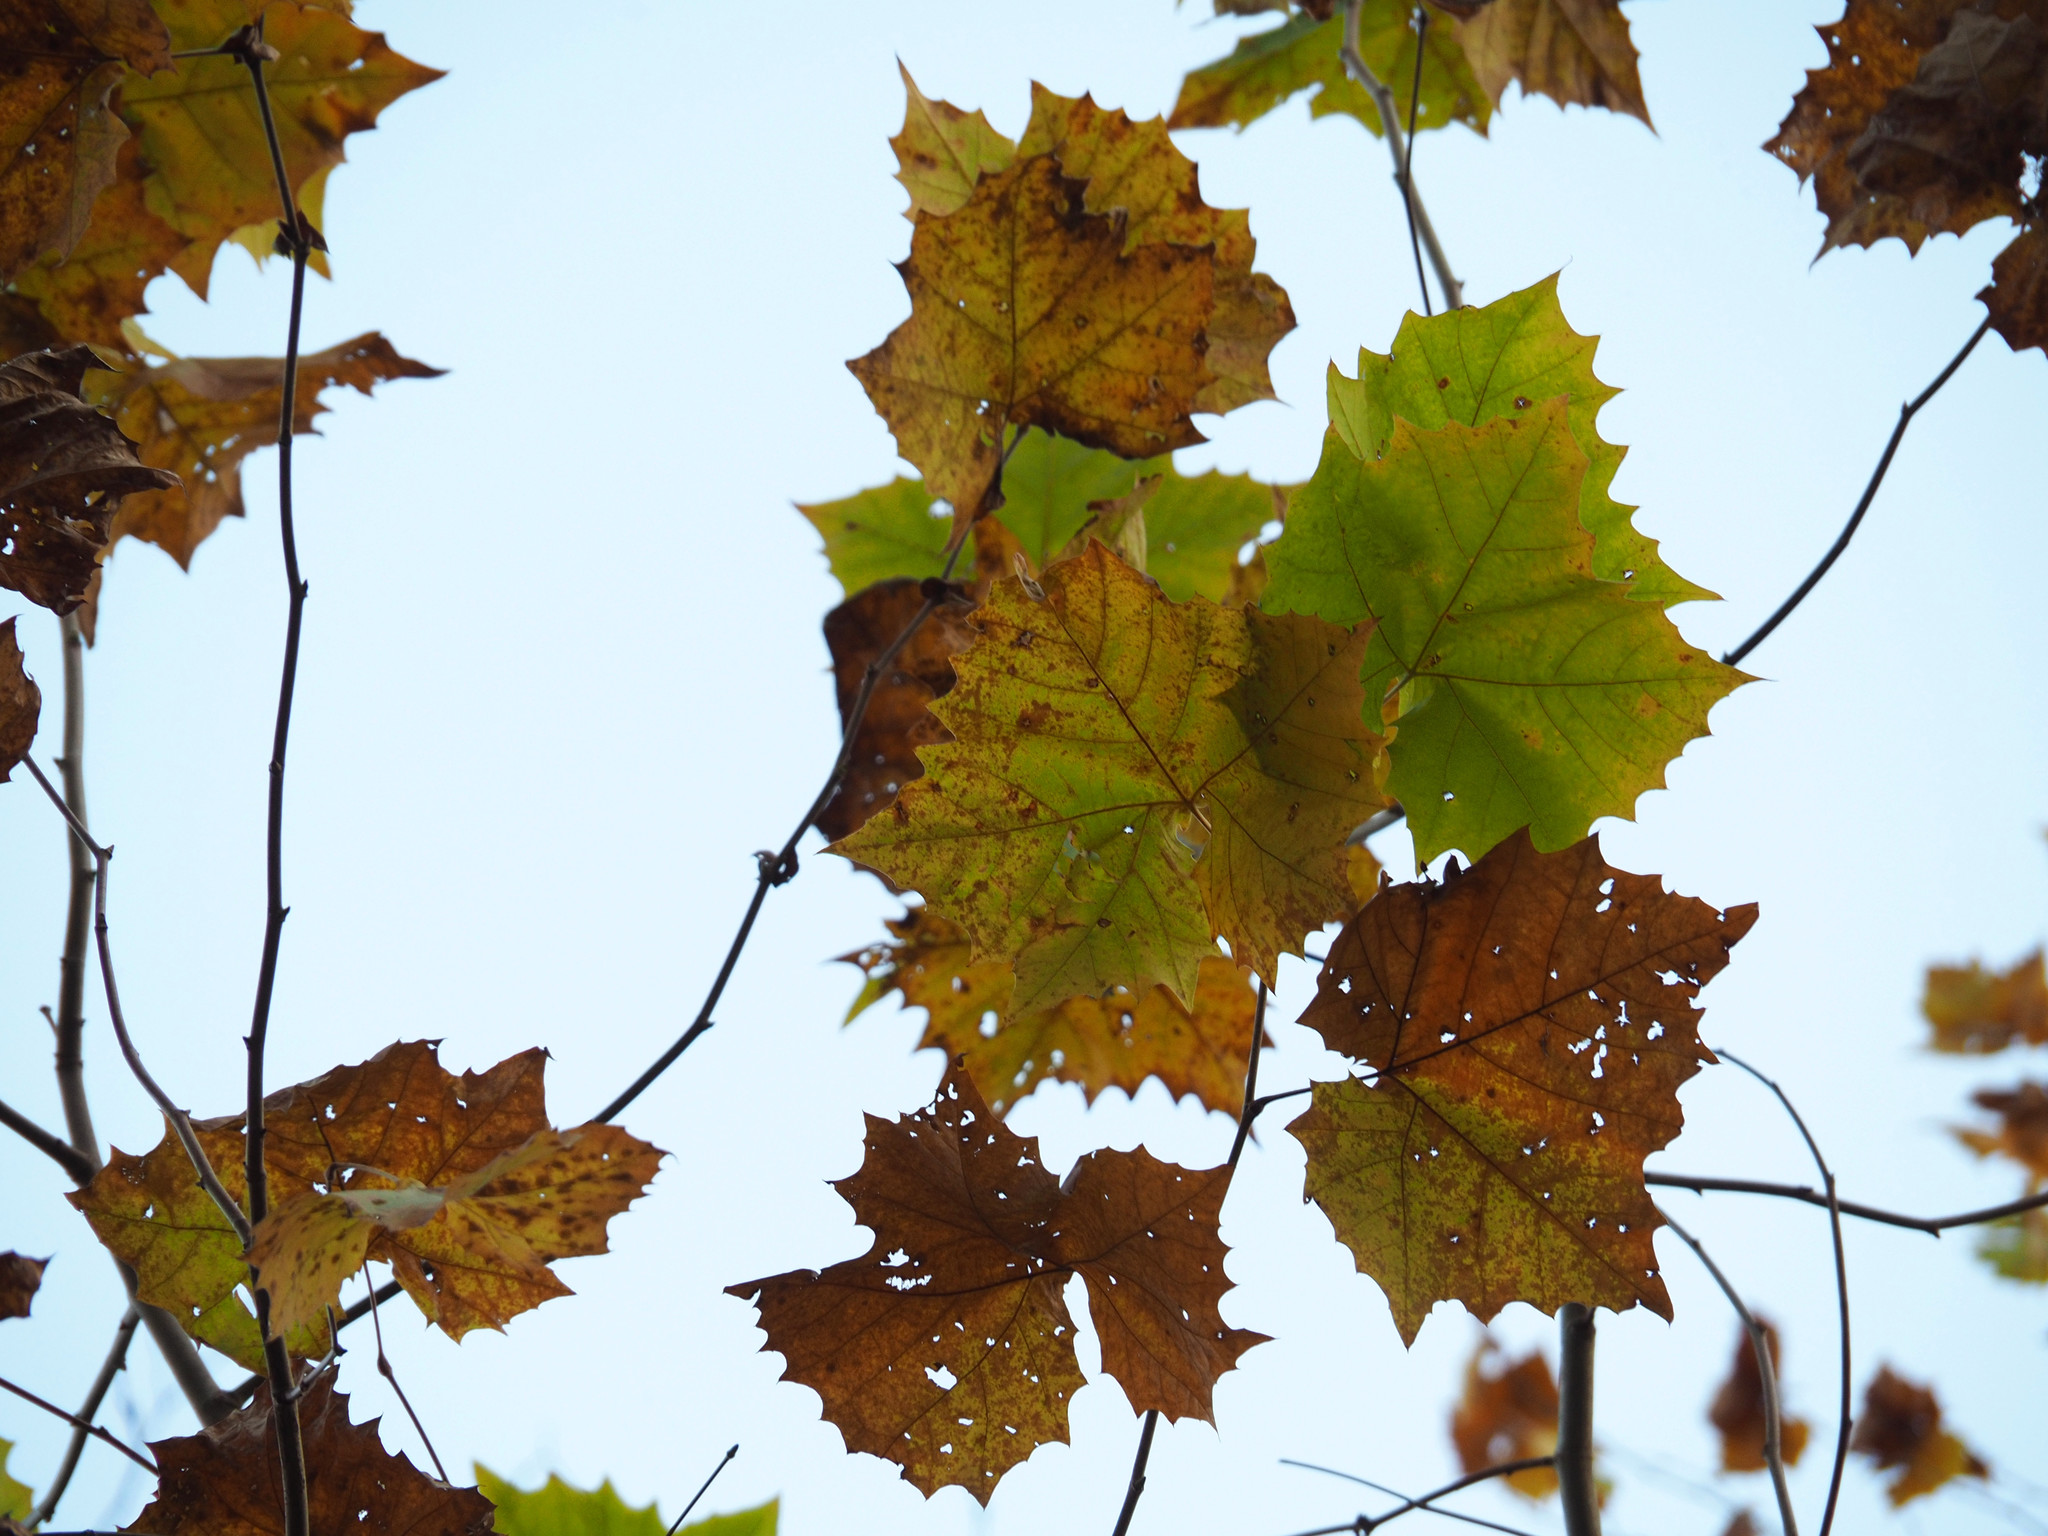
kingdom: Plantae
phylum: Tracheophyta
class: Magnoliopsida
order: Proteales
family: Platanaceae
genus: Platanus
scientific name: Platanus occidentalis
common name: American sycamore
